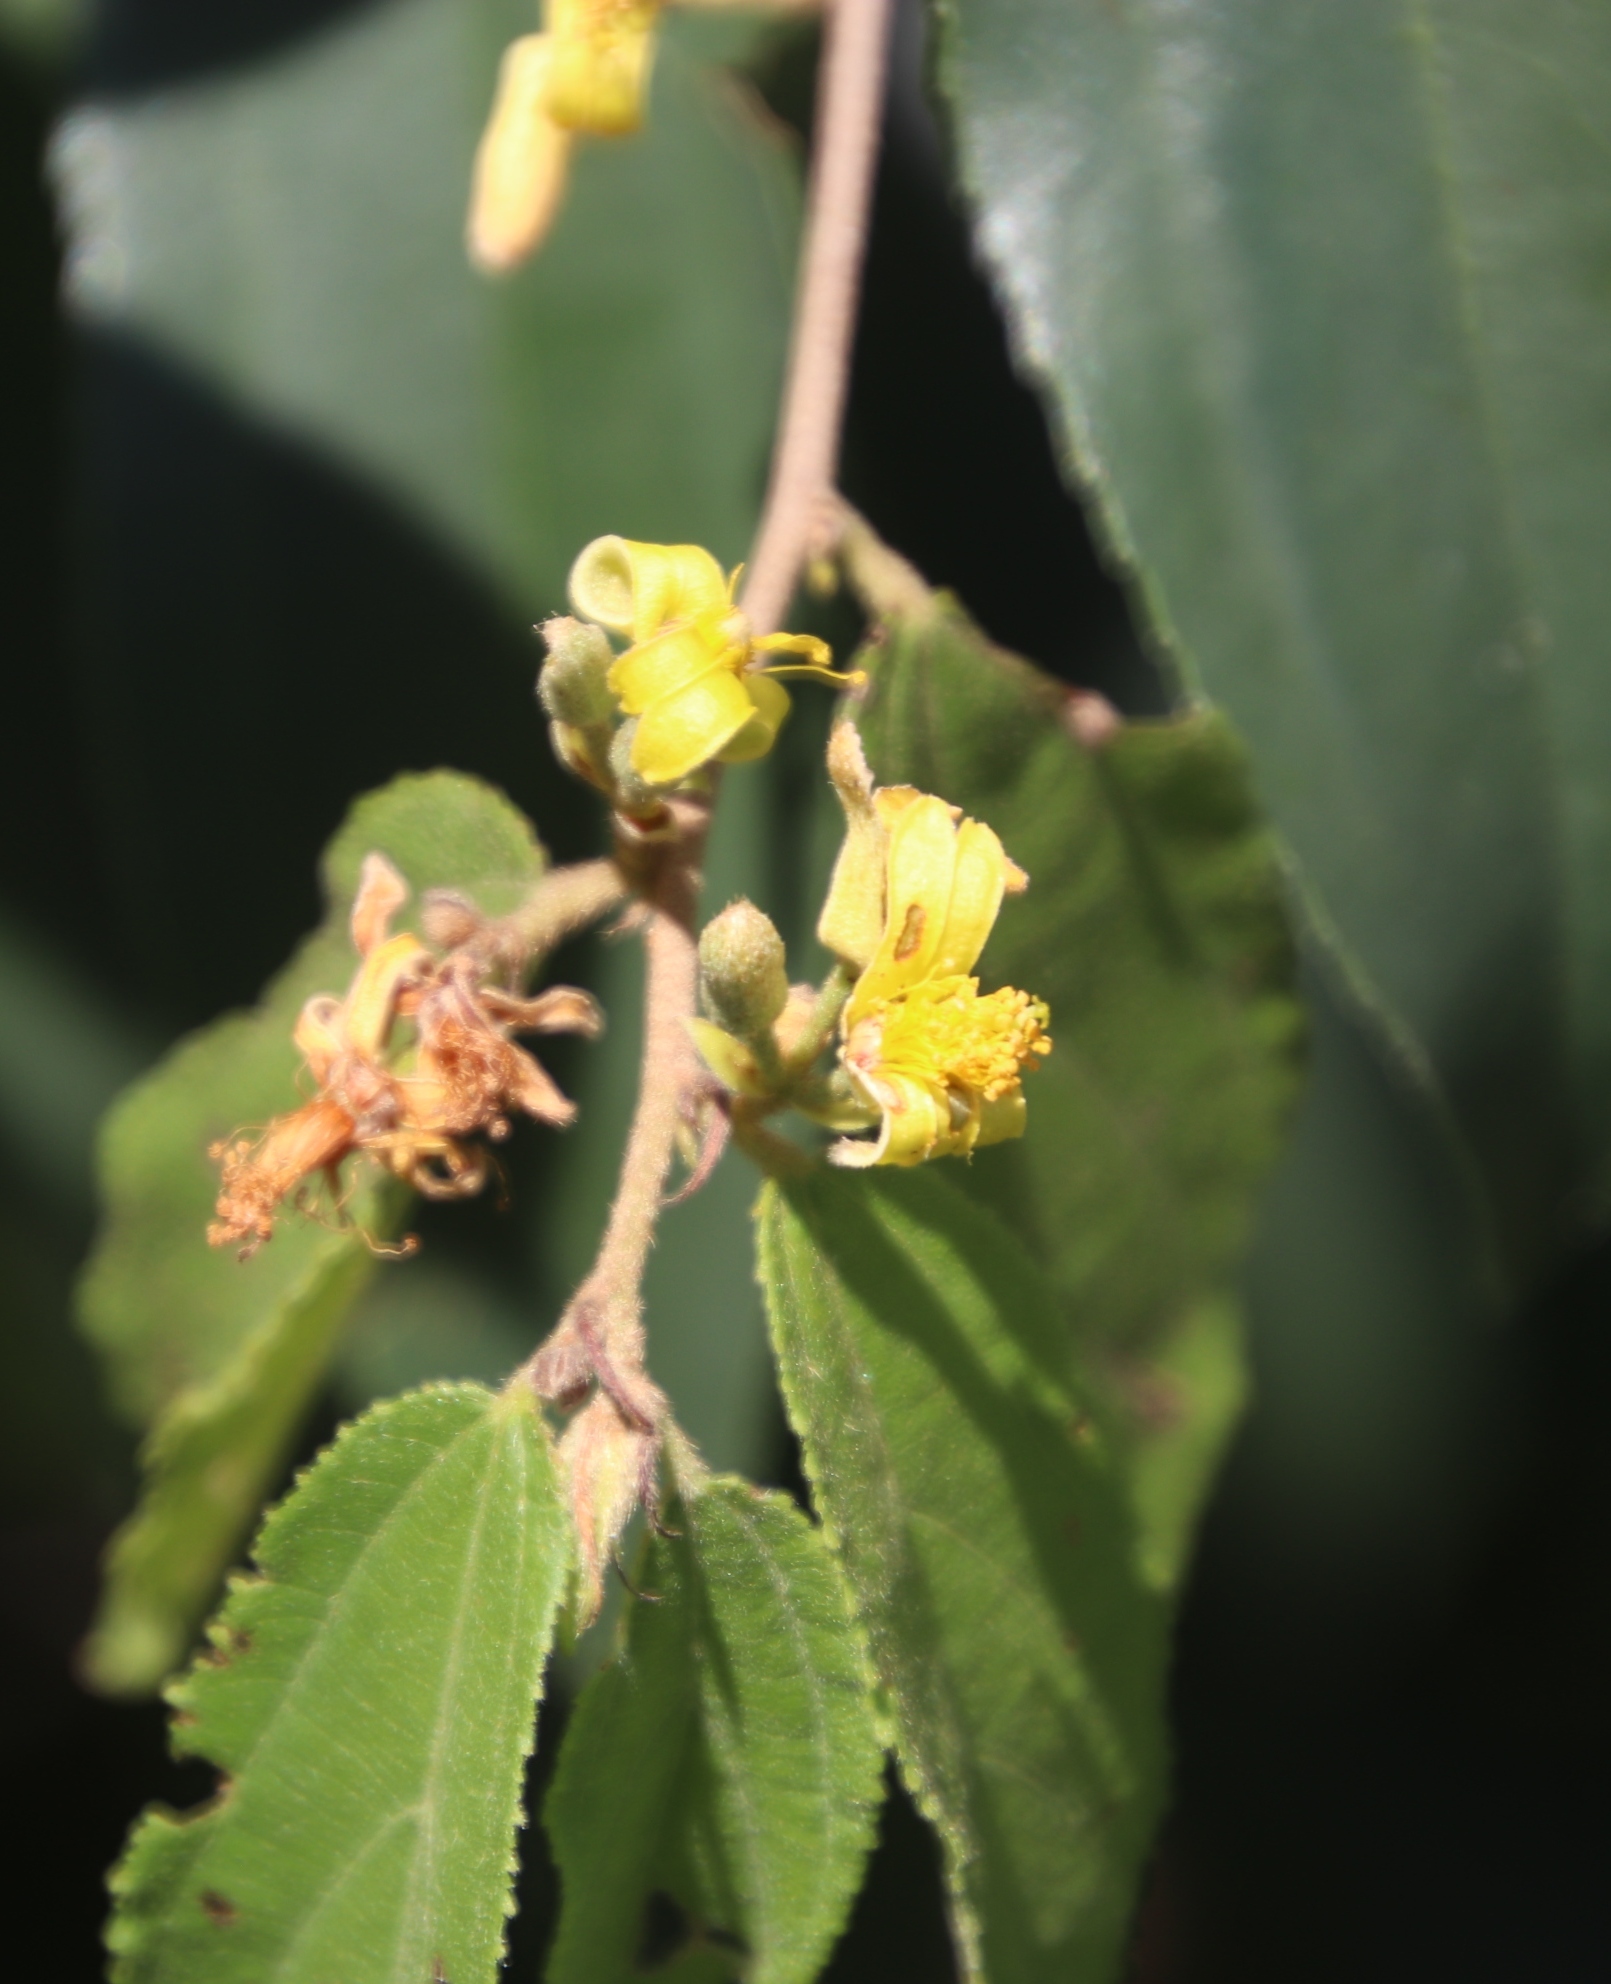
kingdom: Plantae
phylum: Tracheophyta
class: Magnoliopsida
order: Malvales
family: Malvaceae
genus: Grewia
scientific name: Grewia flava
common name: Brandy bush
